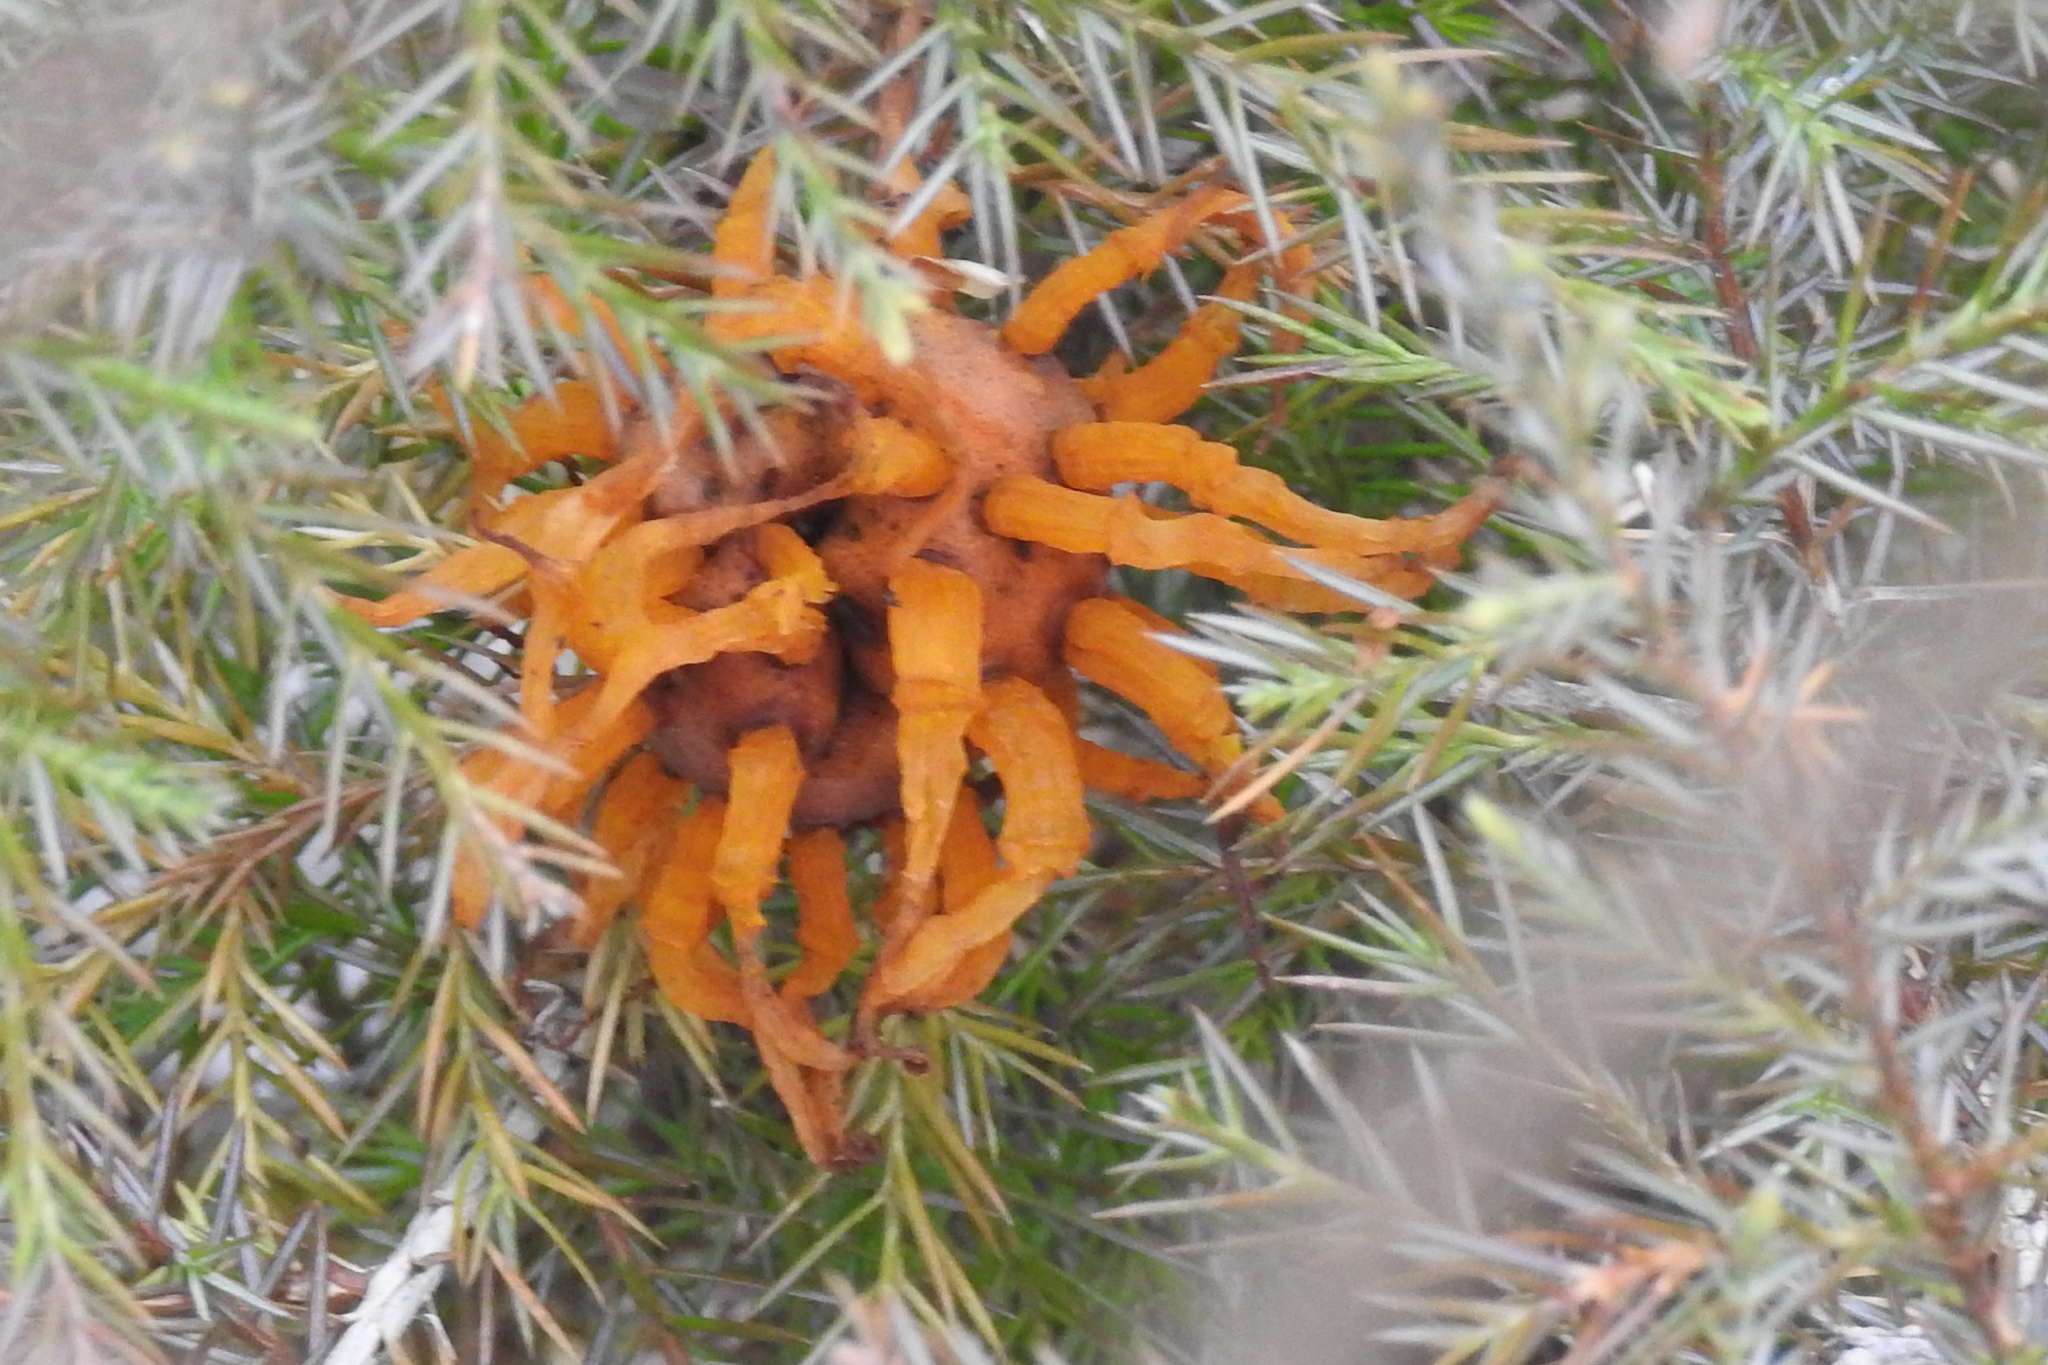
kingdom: Fungi
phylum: Basidiomycota
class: Pucciniomycetes
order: Pucciniales
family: Gymnosporangiaceae
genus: Gymnosporangium
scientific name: Gymnosporangium juniperi-virginianae
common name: Juniper-apple rust
